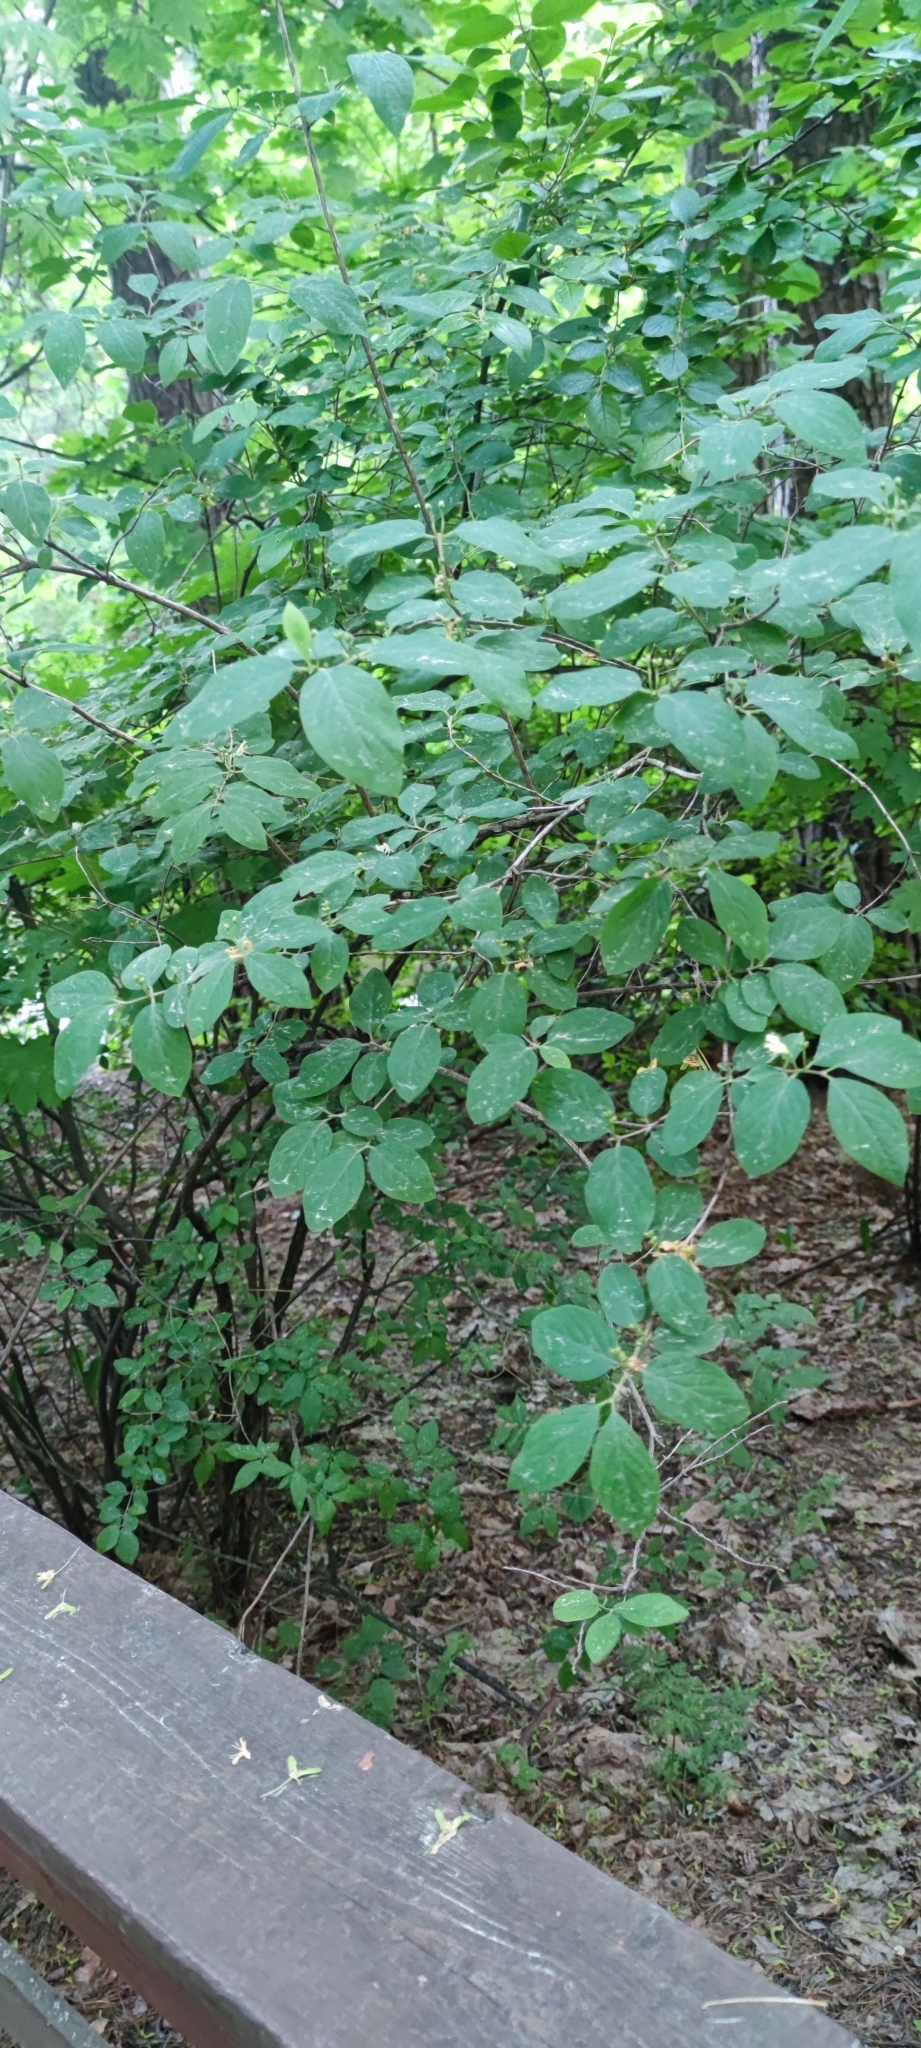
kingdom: Plantae
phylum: Tracheophyta
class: Magnoliopsida
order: Dipsacales
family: Caprifoliaceae
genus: Lonicera
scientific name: Lonicera xylosteum
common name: Fly honeysuckle
